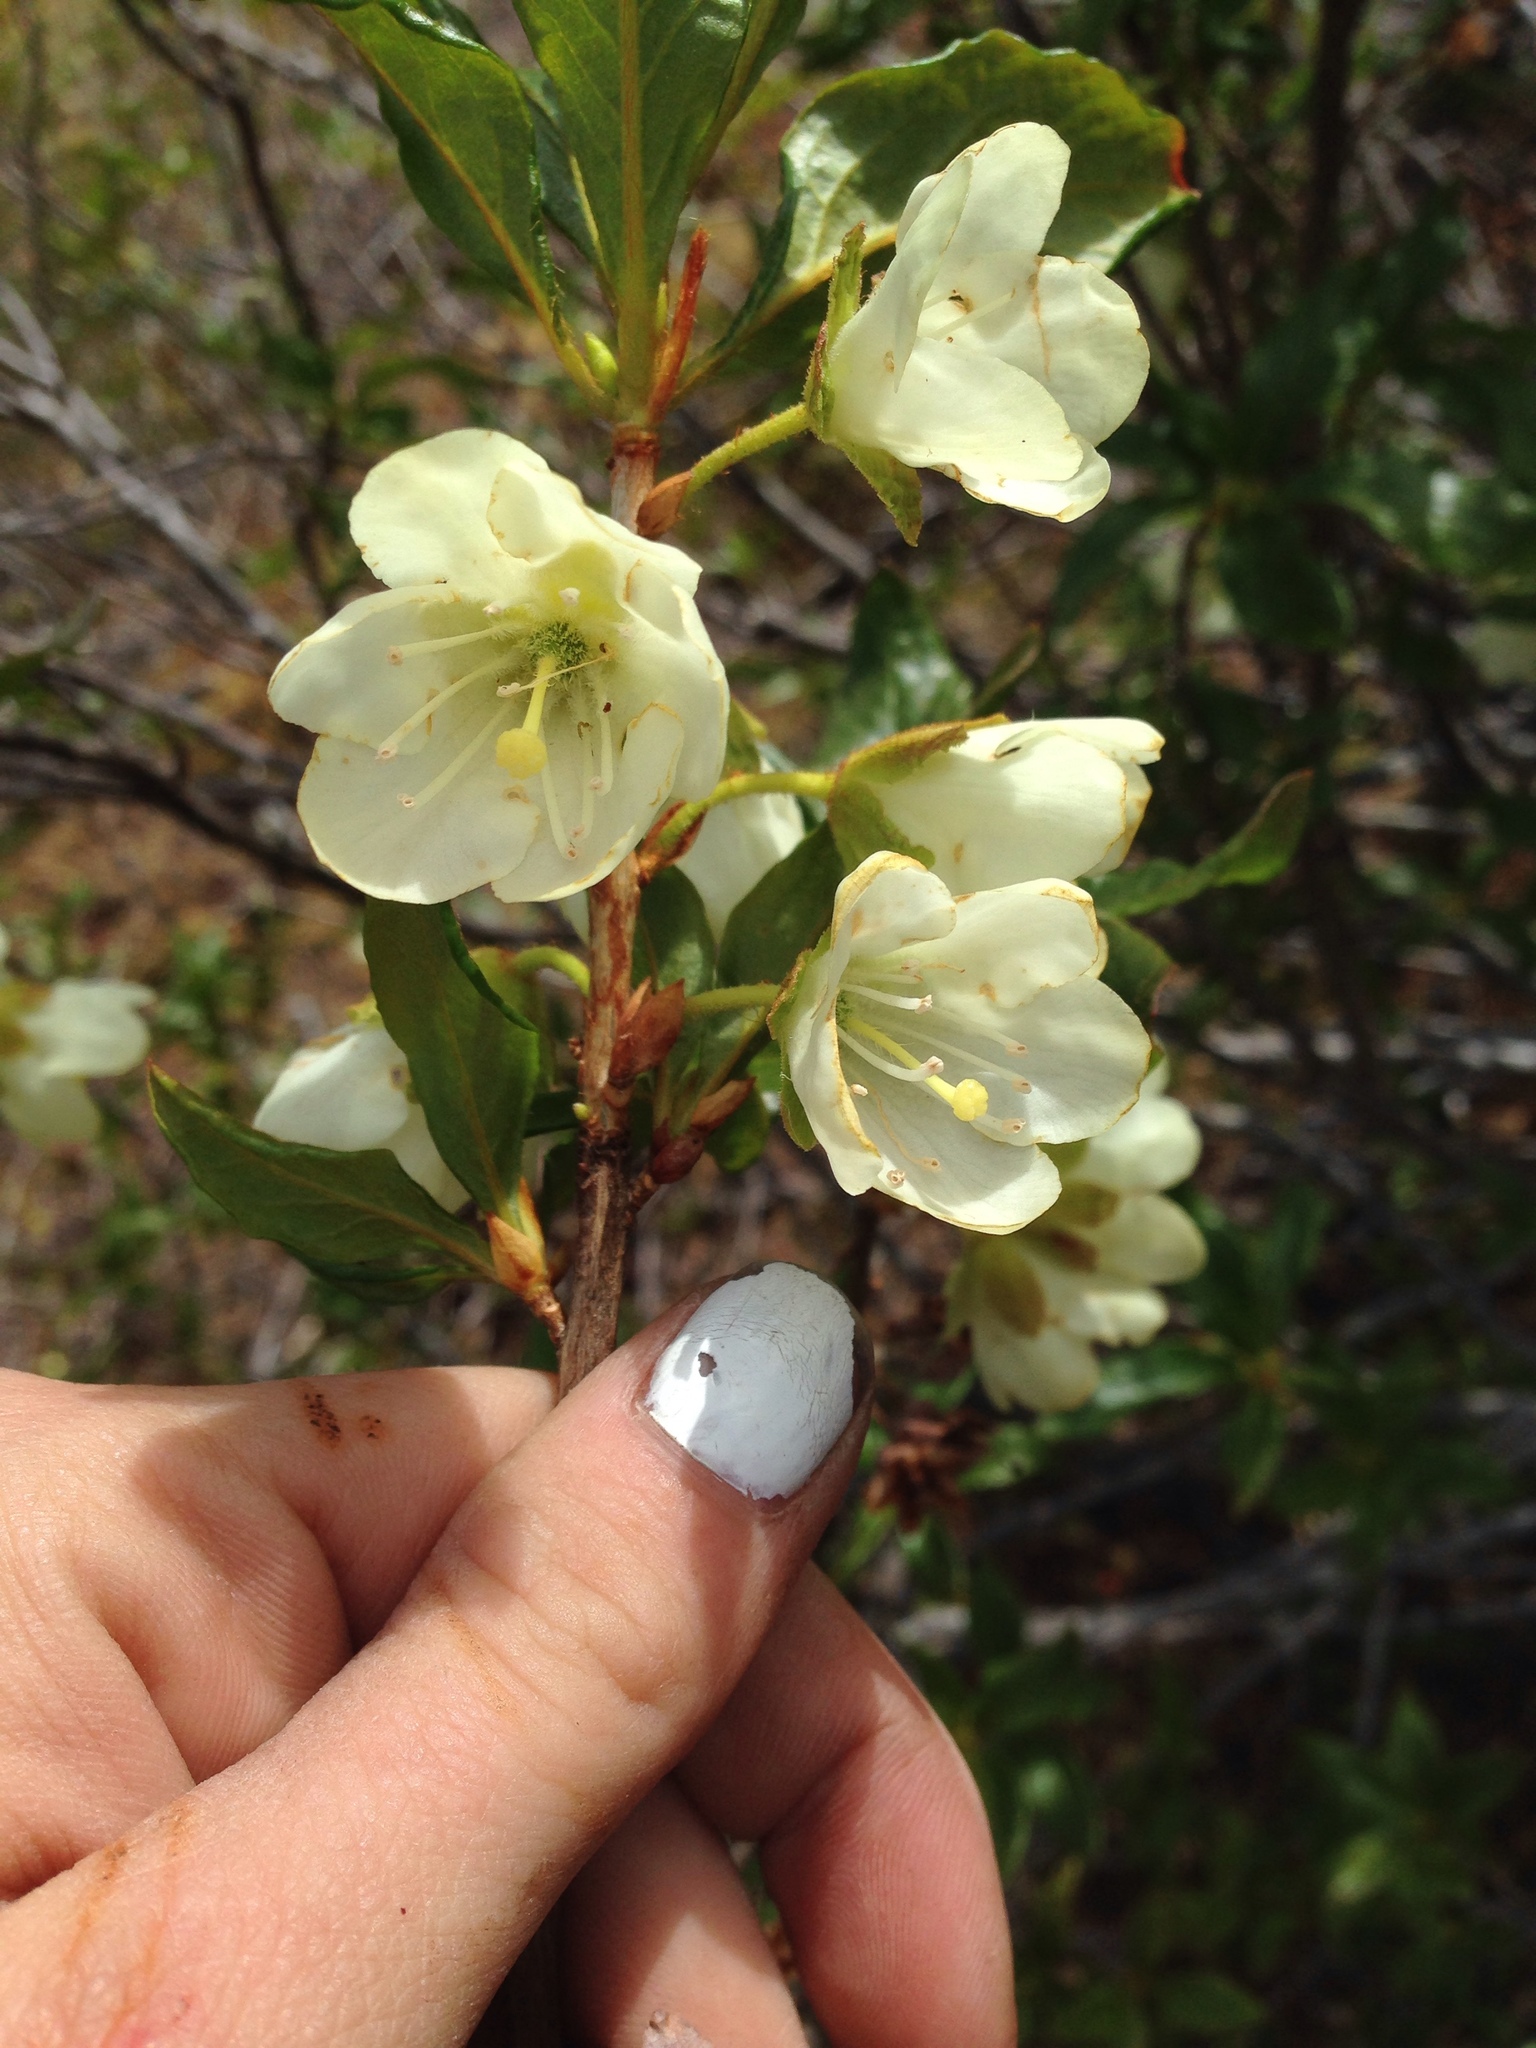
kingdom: Plantae
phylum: Tracheophyta
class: Magnoliopsida
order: Ericales
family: Ericaceae
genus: Rhododendron
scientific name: Rhododendron albiflorum
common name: White rhododendron
